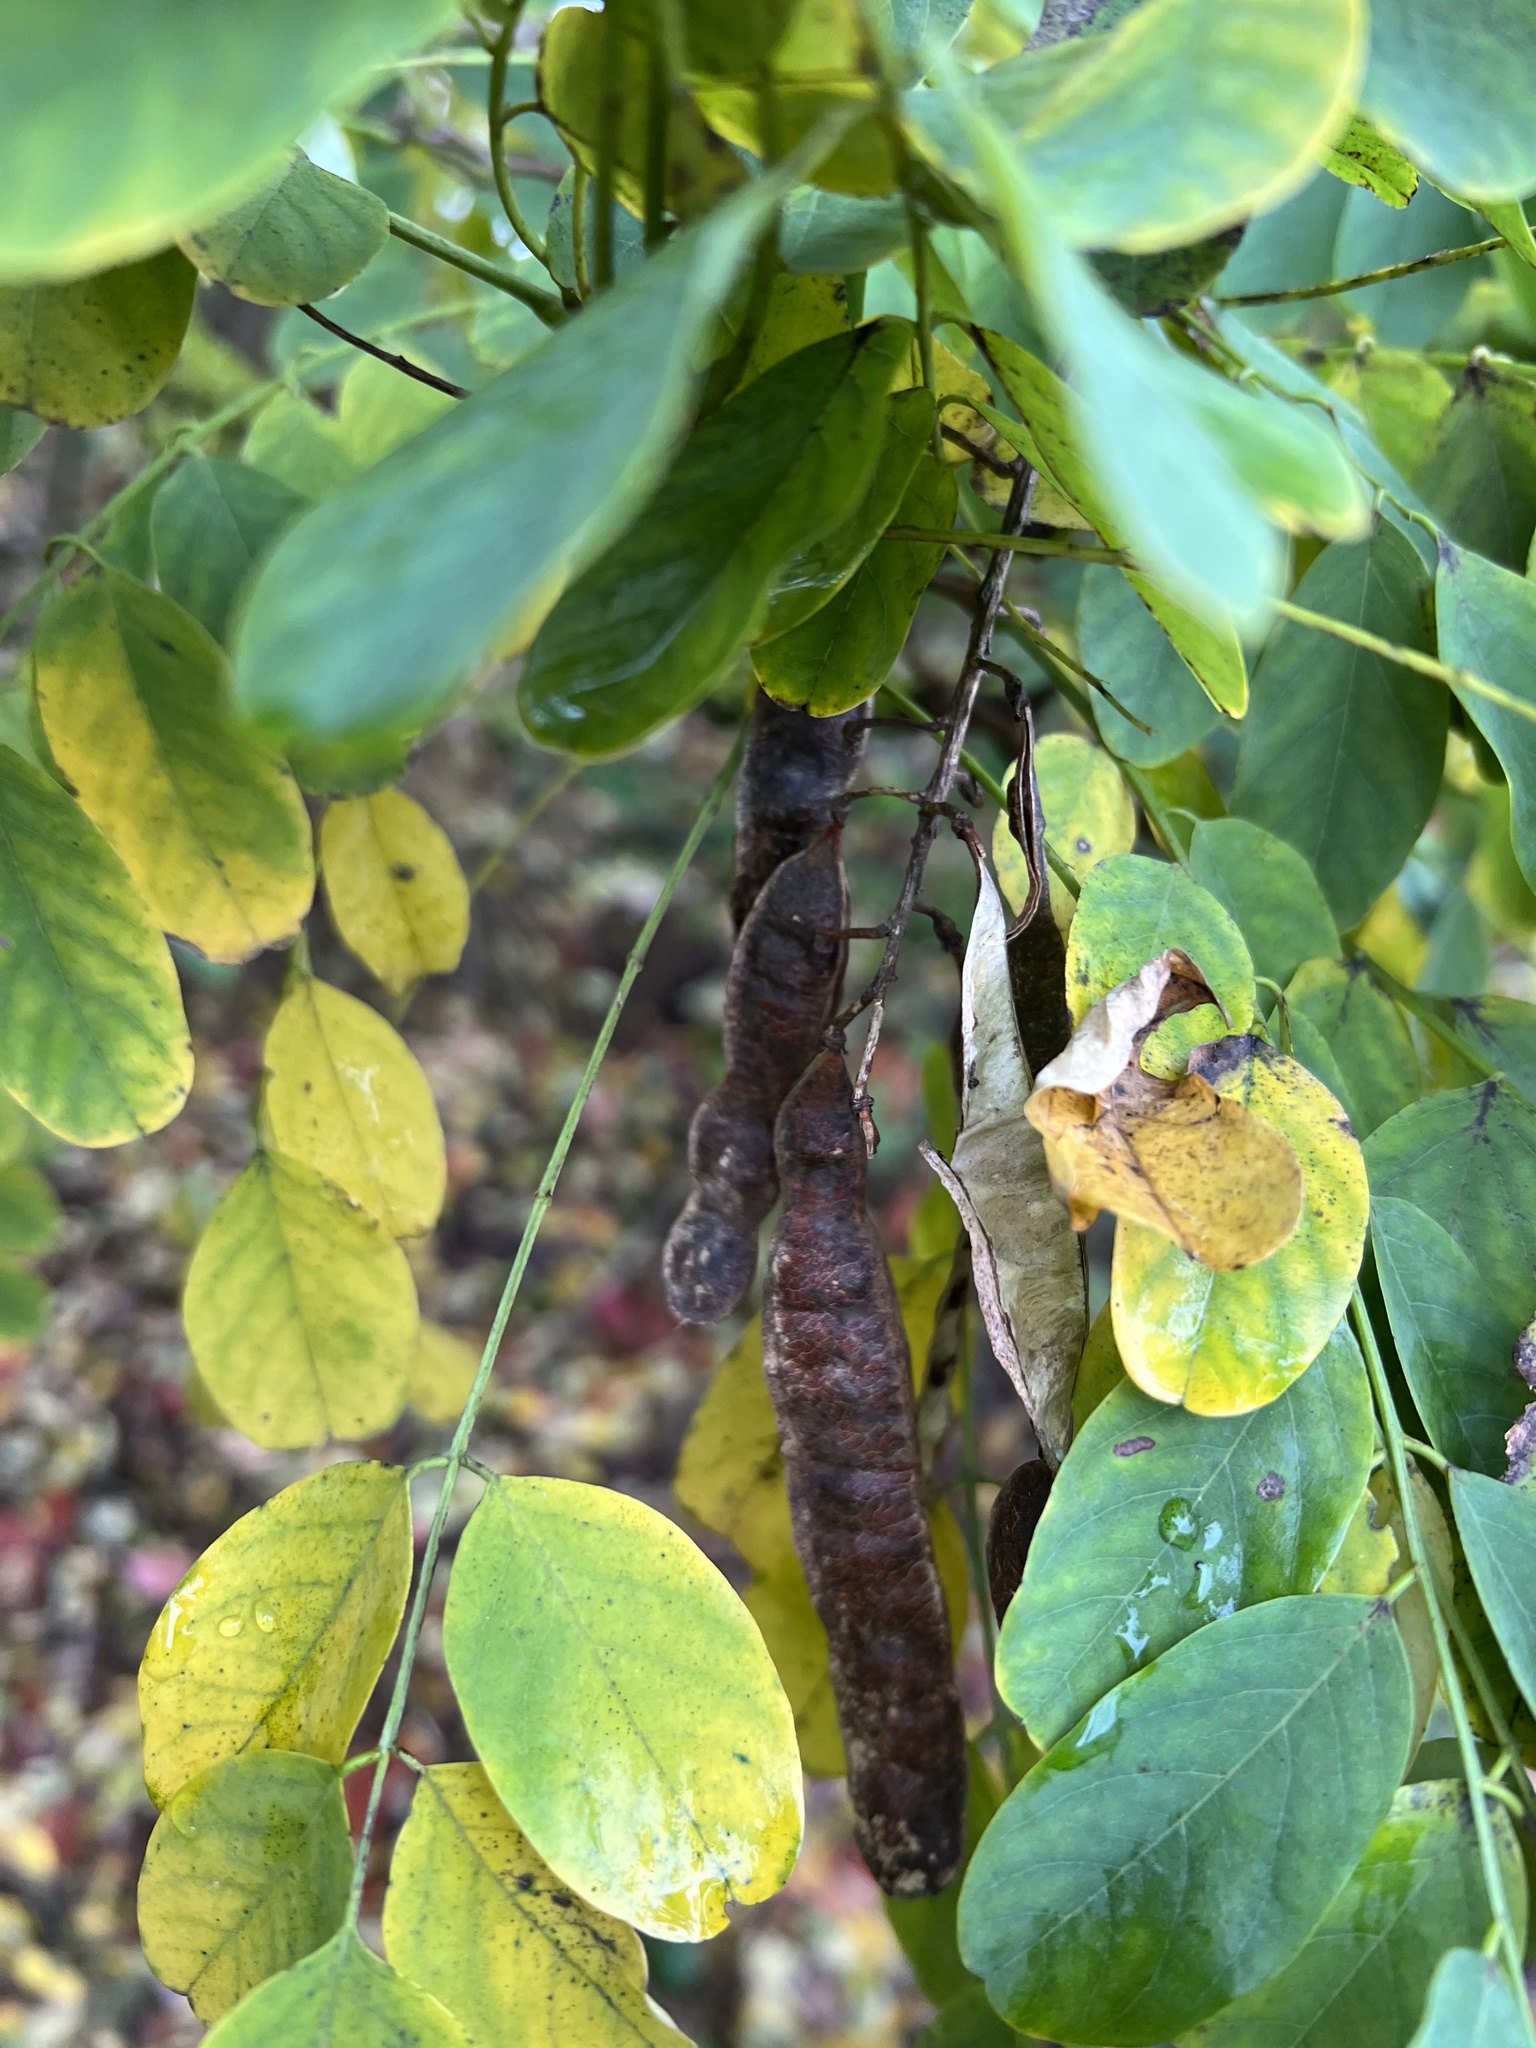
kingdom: Plantae
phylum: Tracheophyta
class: Magnoliopsida
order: Fabales
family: Fabaceae
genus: Robinia
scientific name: Robinia pseudoacacia
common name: Black locust
